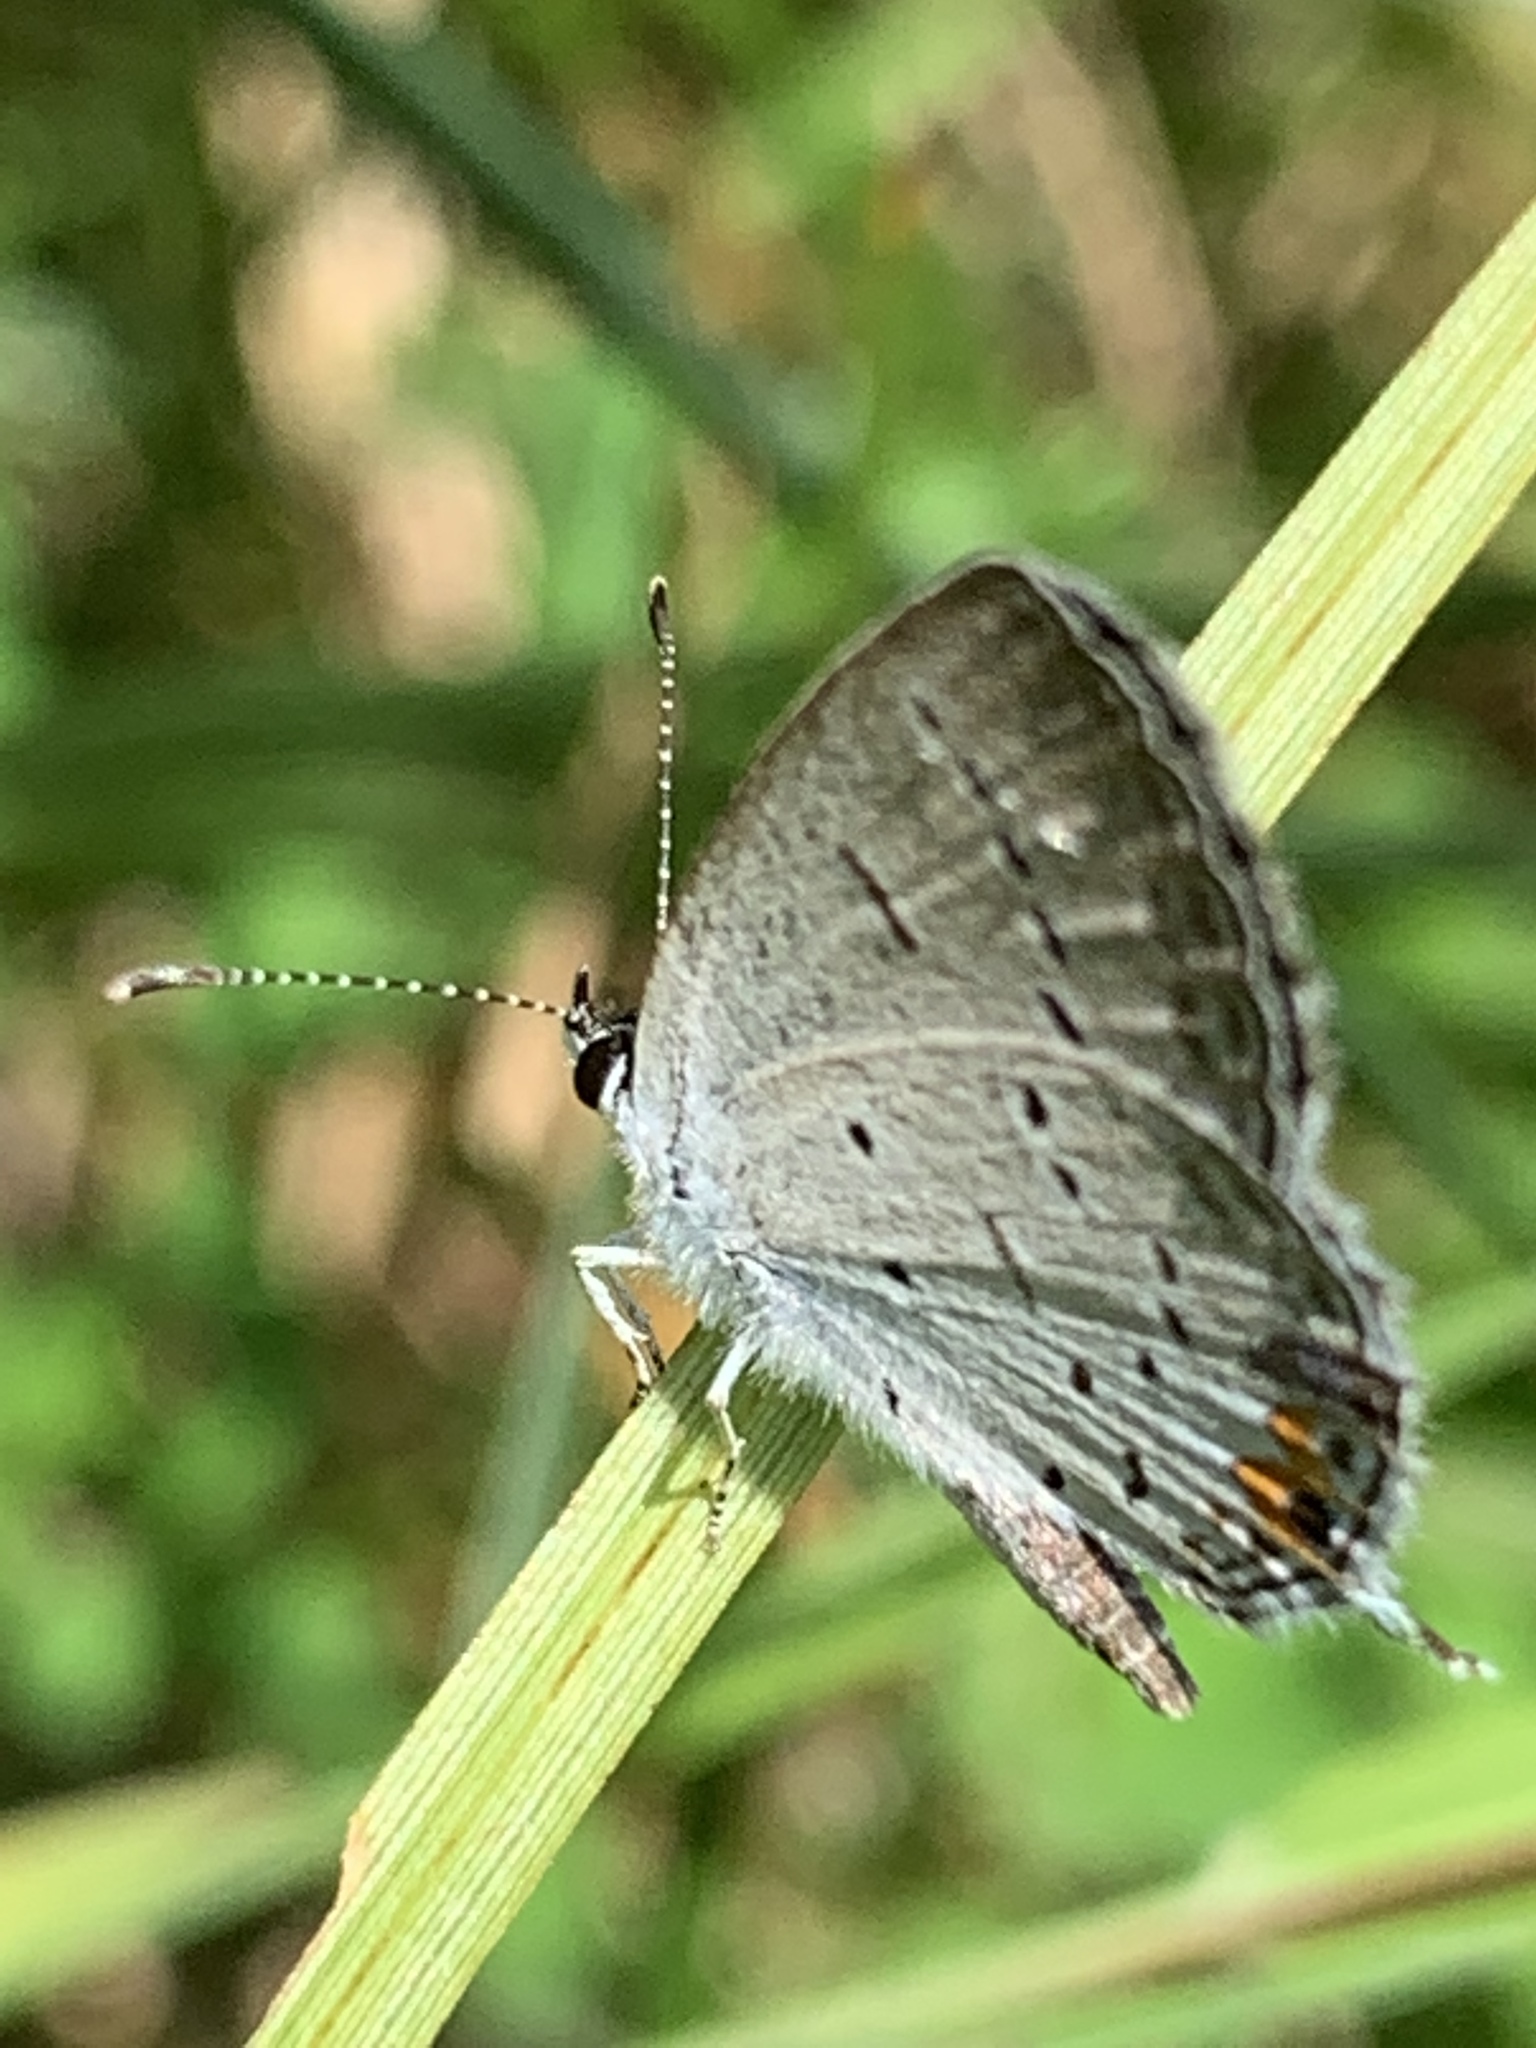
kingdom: Animalia
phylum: Arthropoda
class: Insecta
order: Lepidoptera
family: Lycaenidae
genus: Elkalyce
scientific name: Elkalyce comyntas
